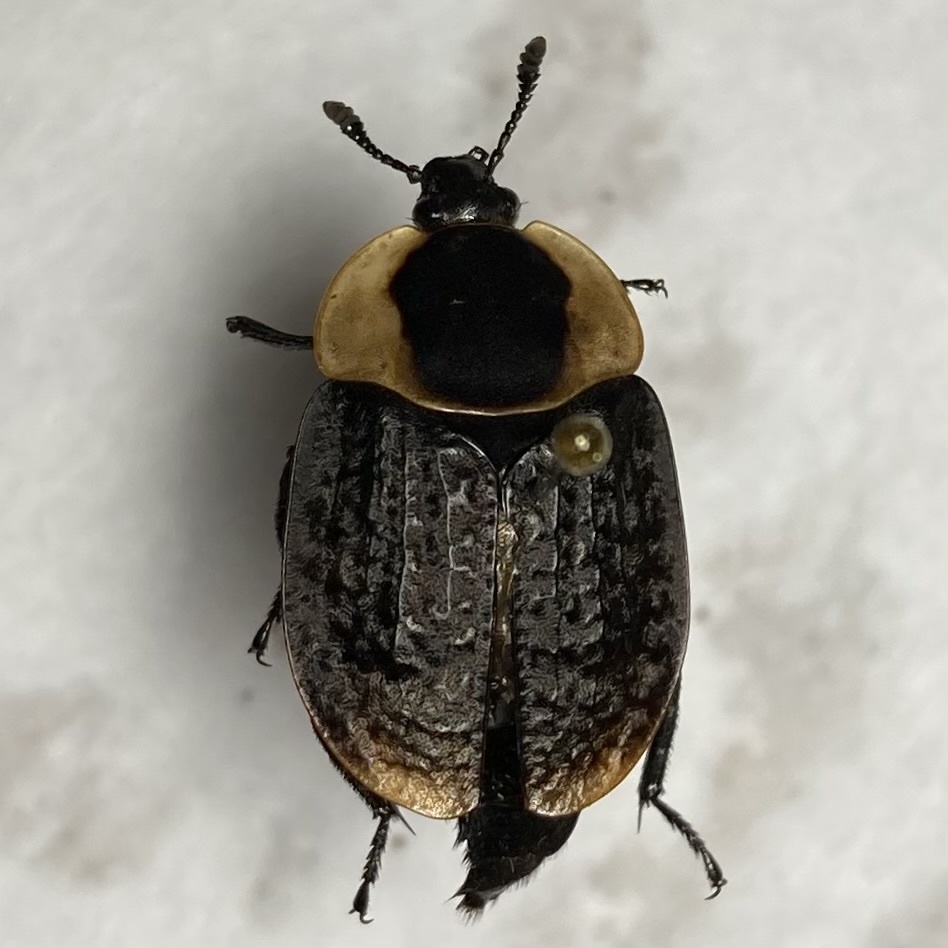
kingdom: Animalia
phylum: Arthropoda
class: Insecta
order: Coleoptera
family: Staphylinidae
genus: Necrophila
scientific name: Necrophila americana
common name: American carrion beetle
